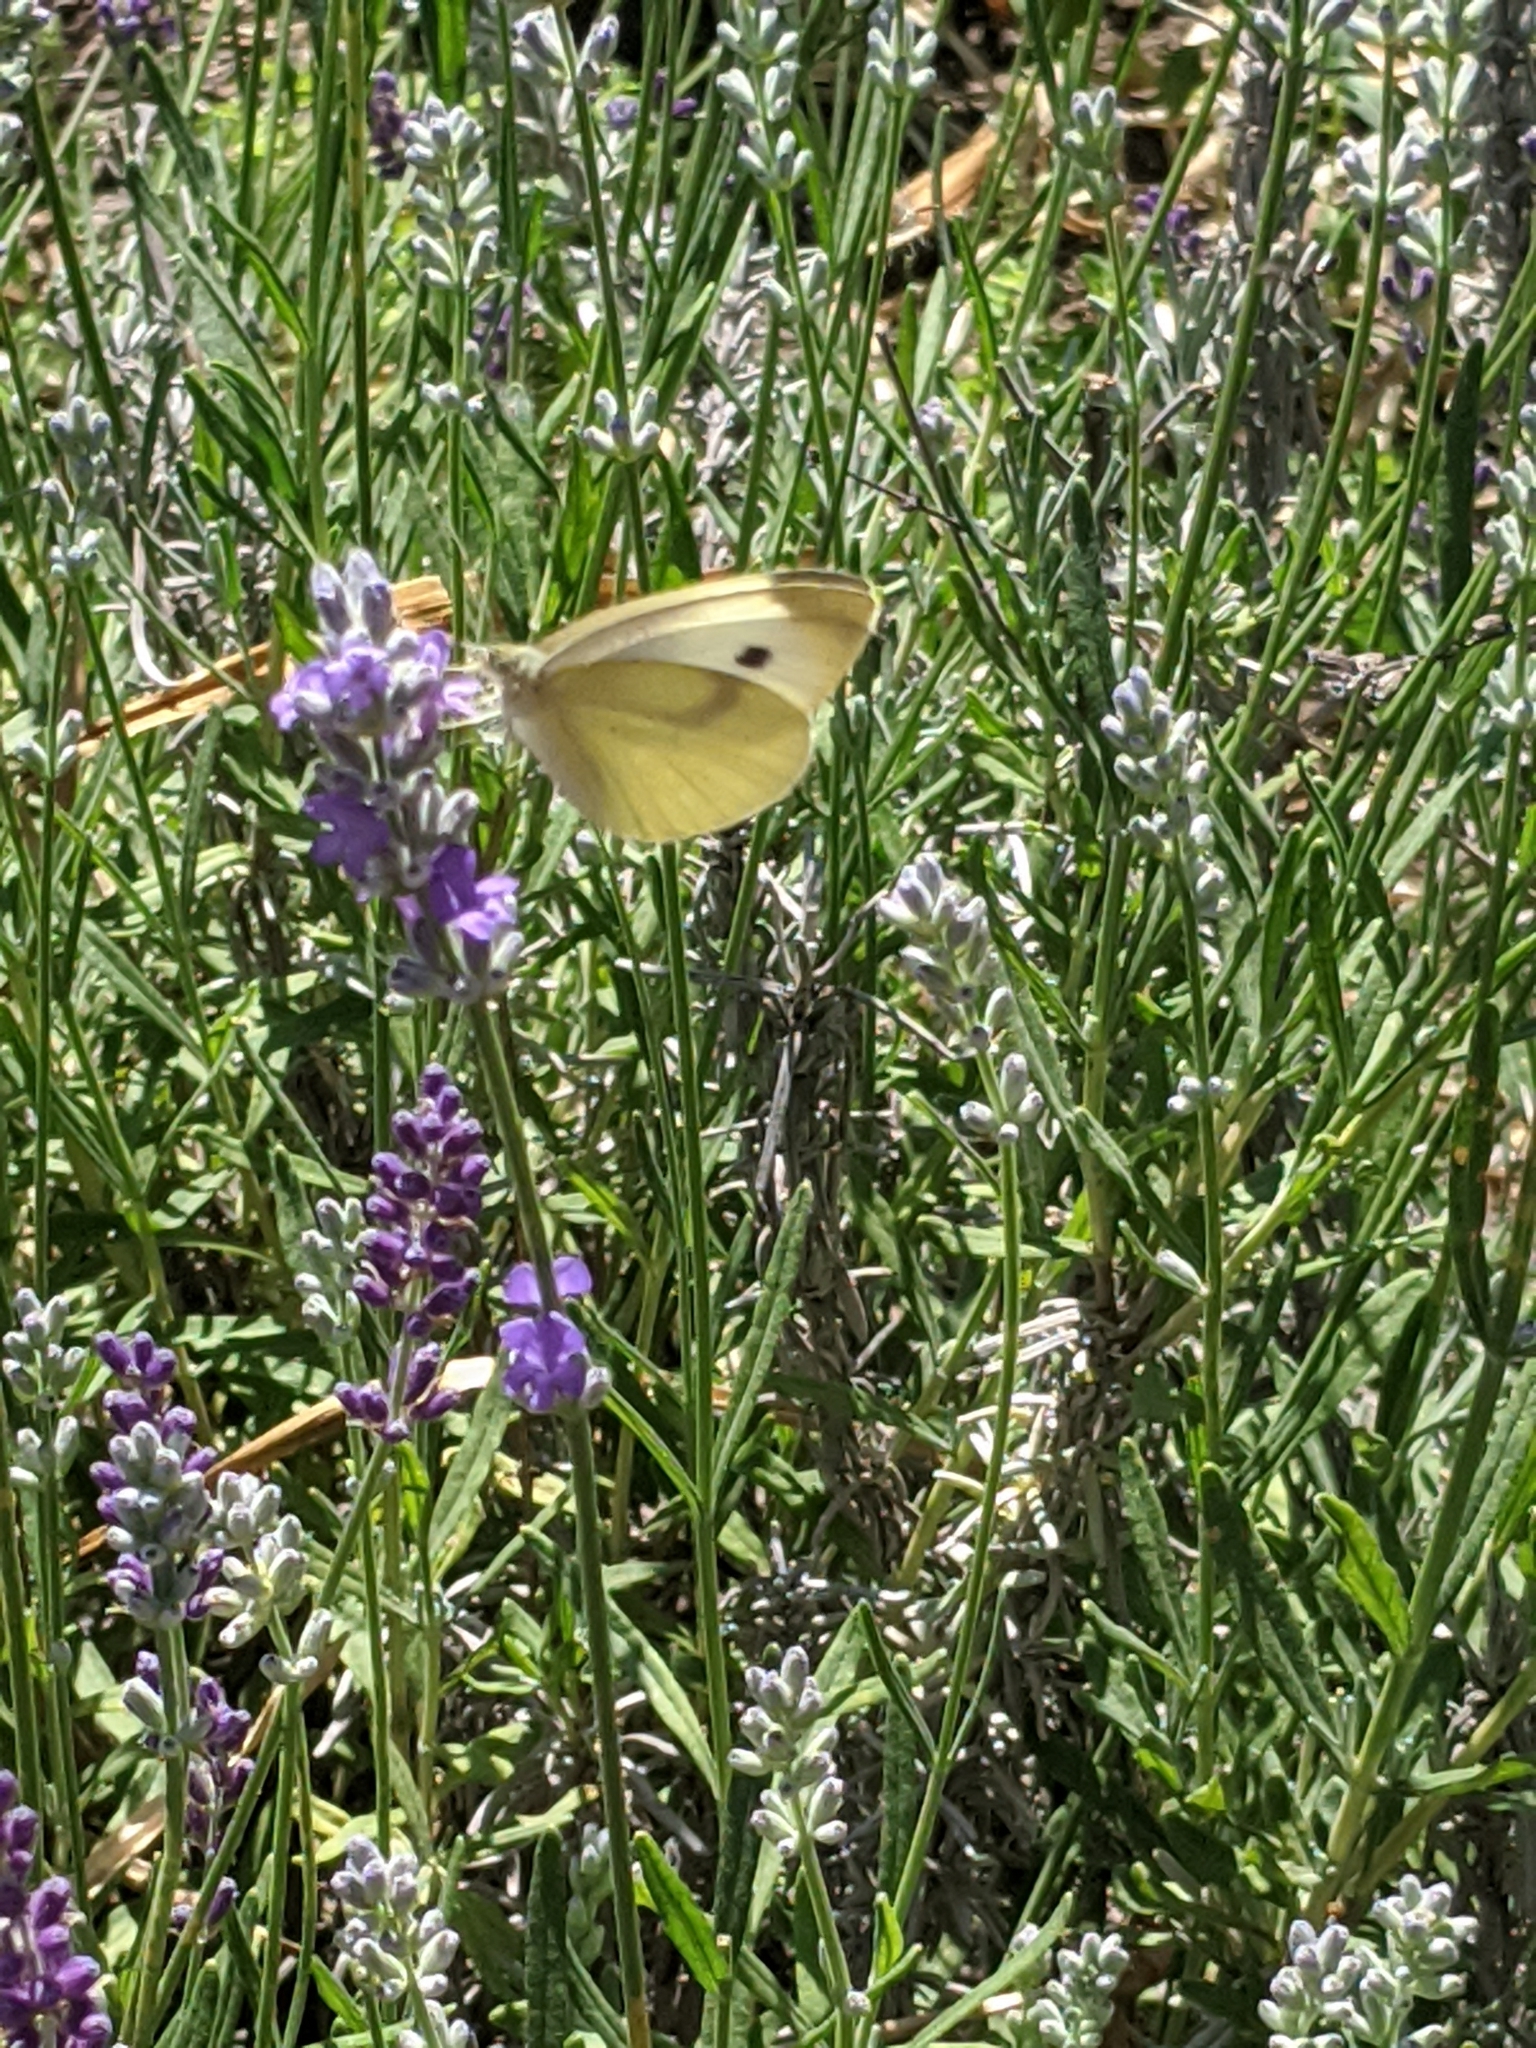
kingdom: Animalia
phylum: Arthropoda
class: Insecta
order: Lepidoptera
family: Pieridae
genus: Pieris
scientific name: Pieris rapae
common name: Small white
